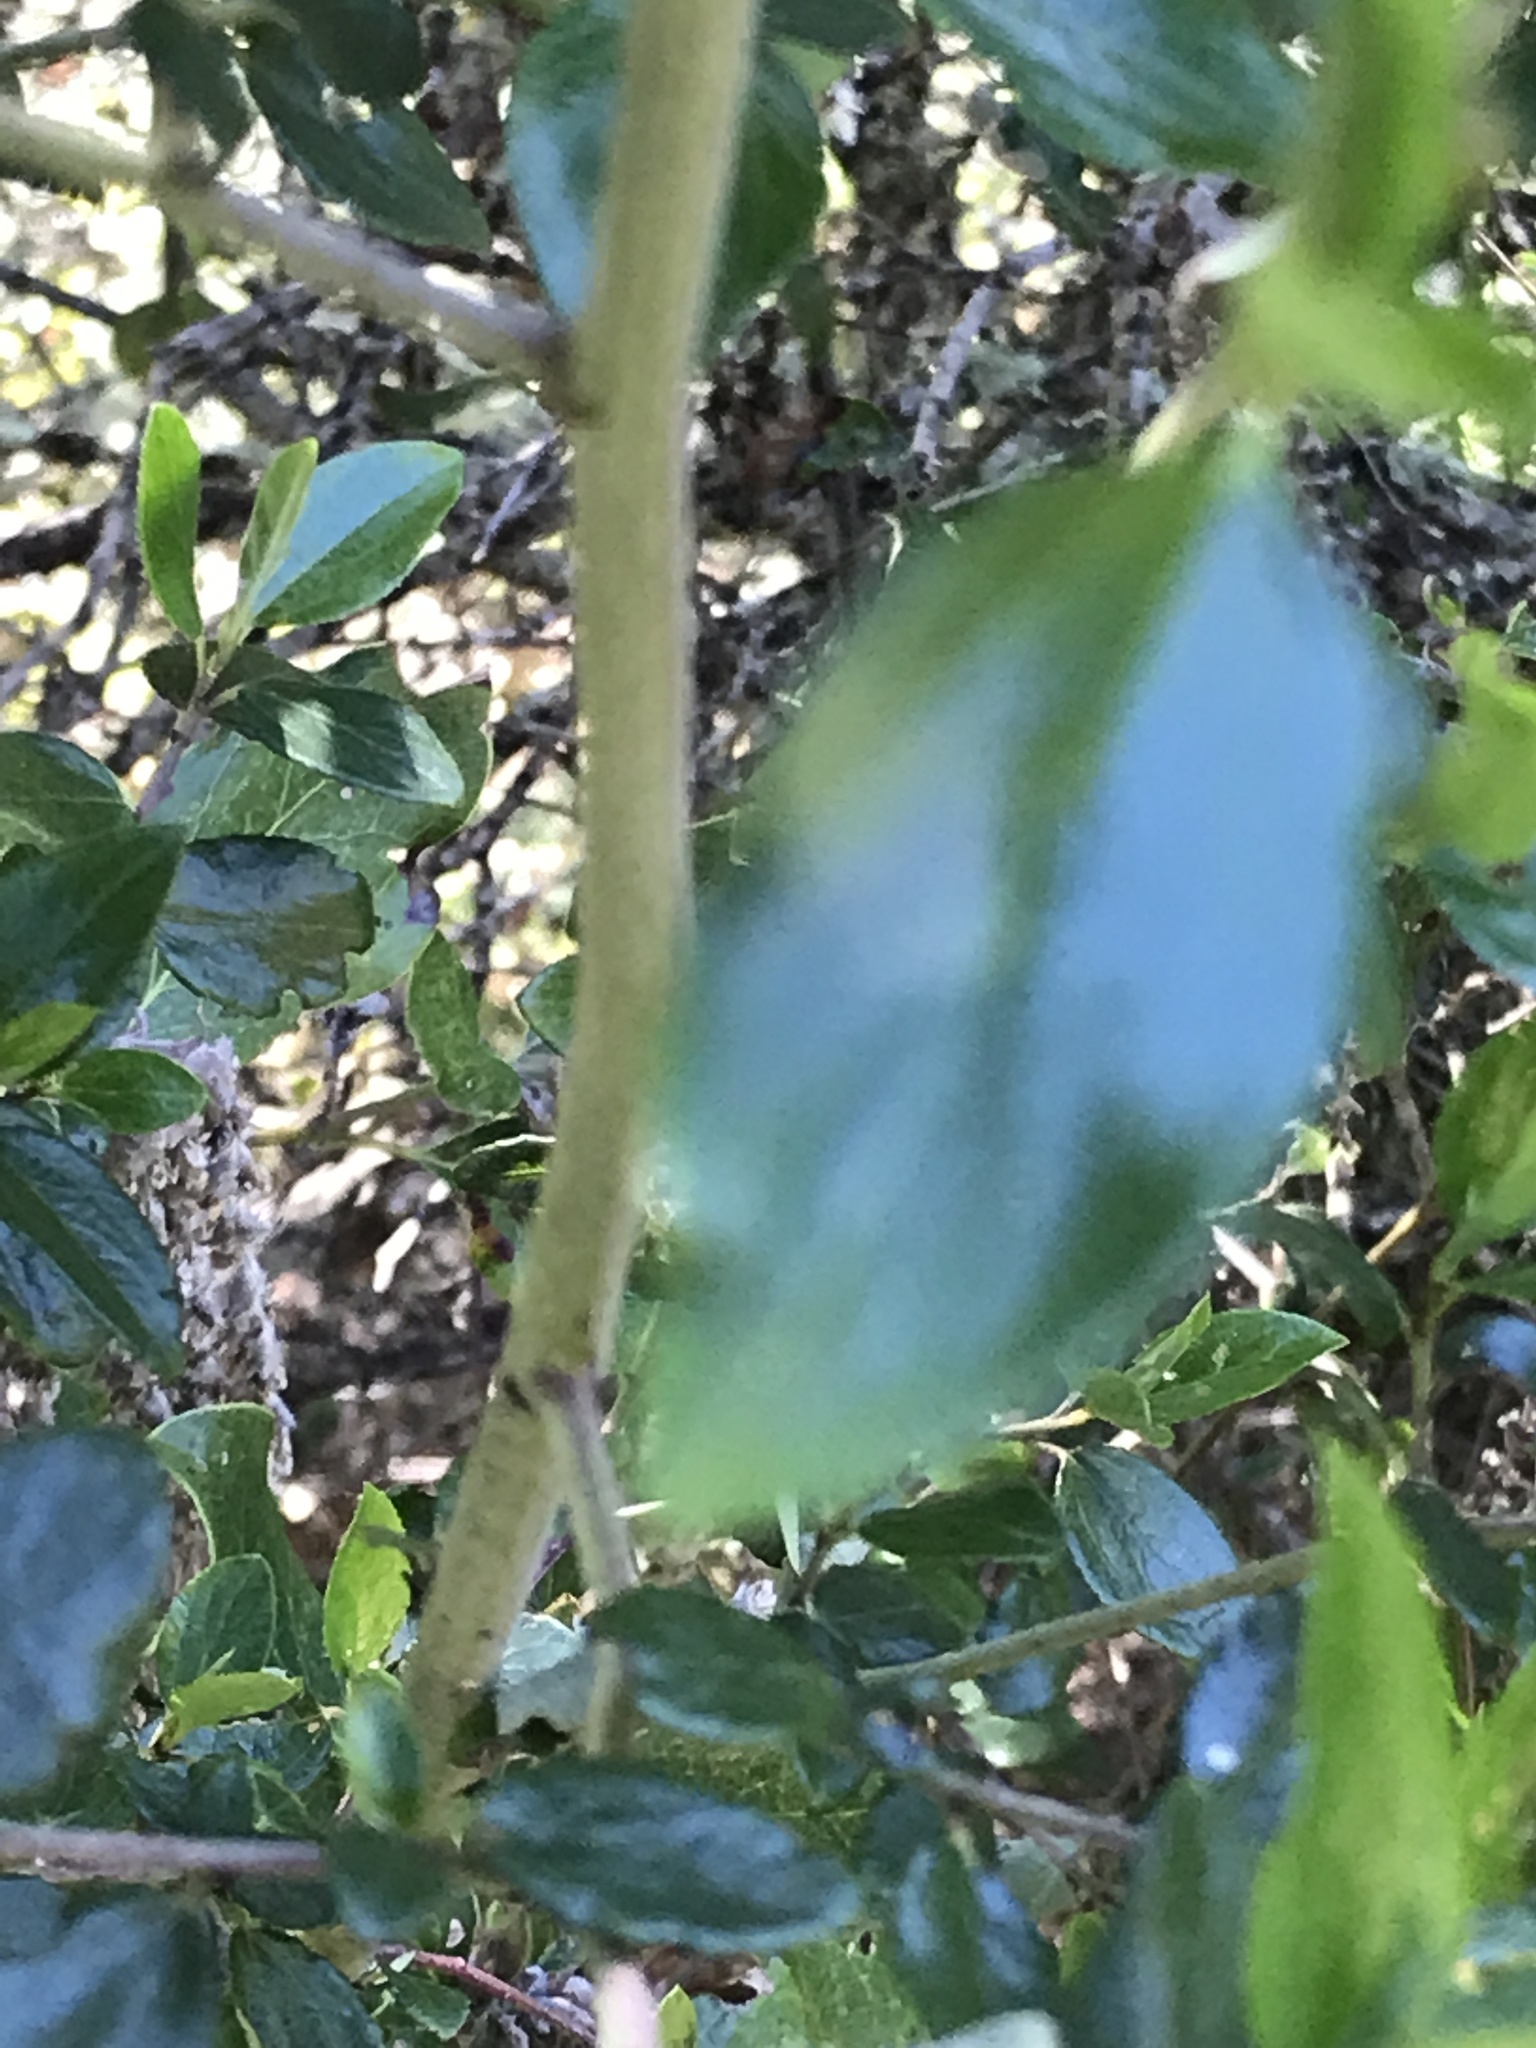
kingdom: Plantae
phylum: Tracheophyta
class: Magnoliopsida
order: Rosales
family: Rhamnaceae
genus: Ceanothus
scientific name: Ceanothus oliganthus
